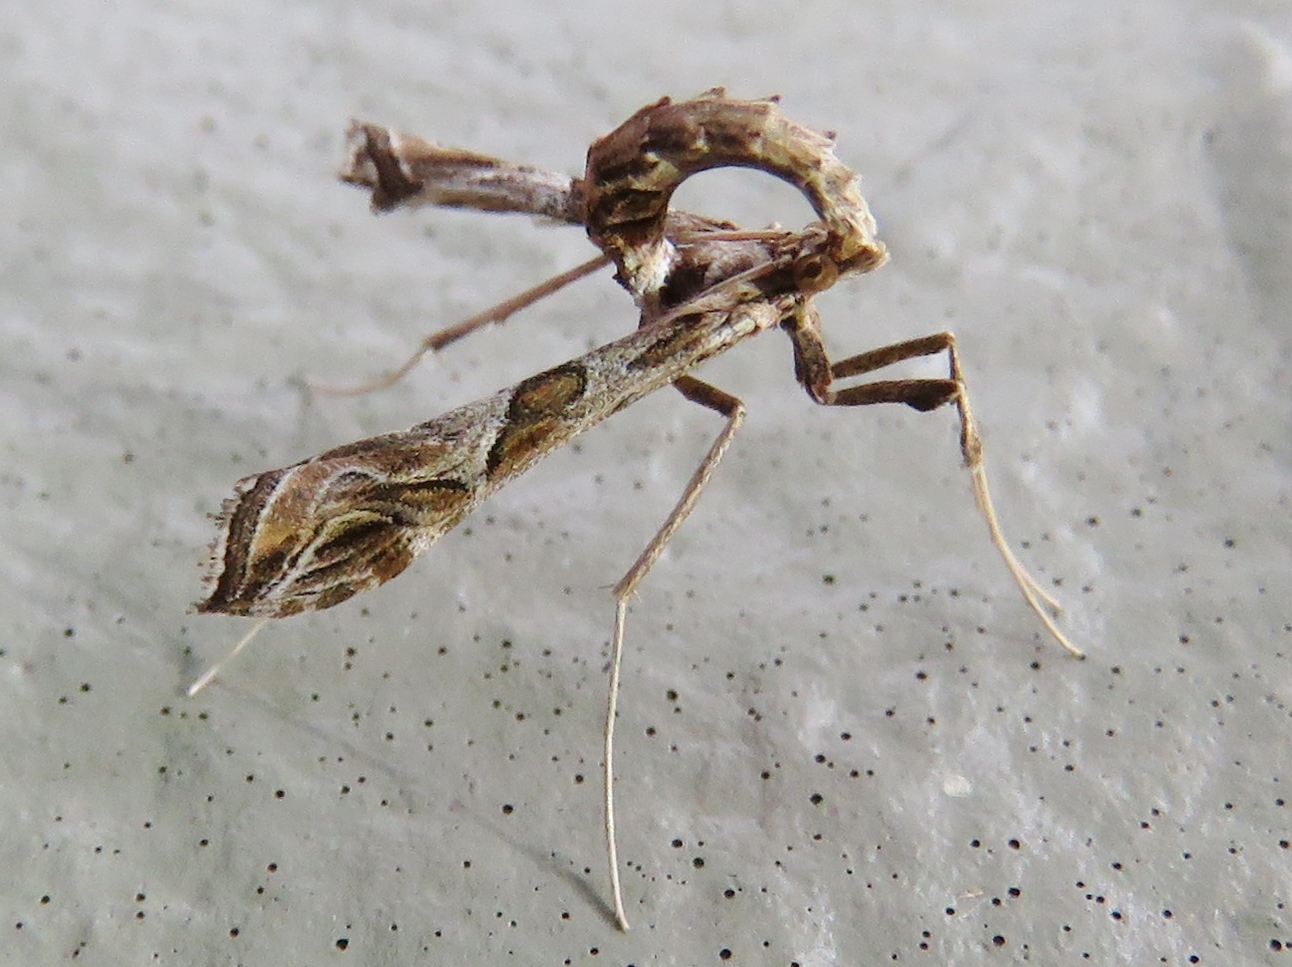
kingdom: Animalia
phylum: Arthropoda
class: Insecta
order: Lepidoptera
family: Crambidae
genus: Lineodes
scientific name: Lineodes interrupta
